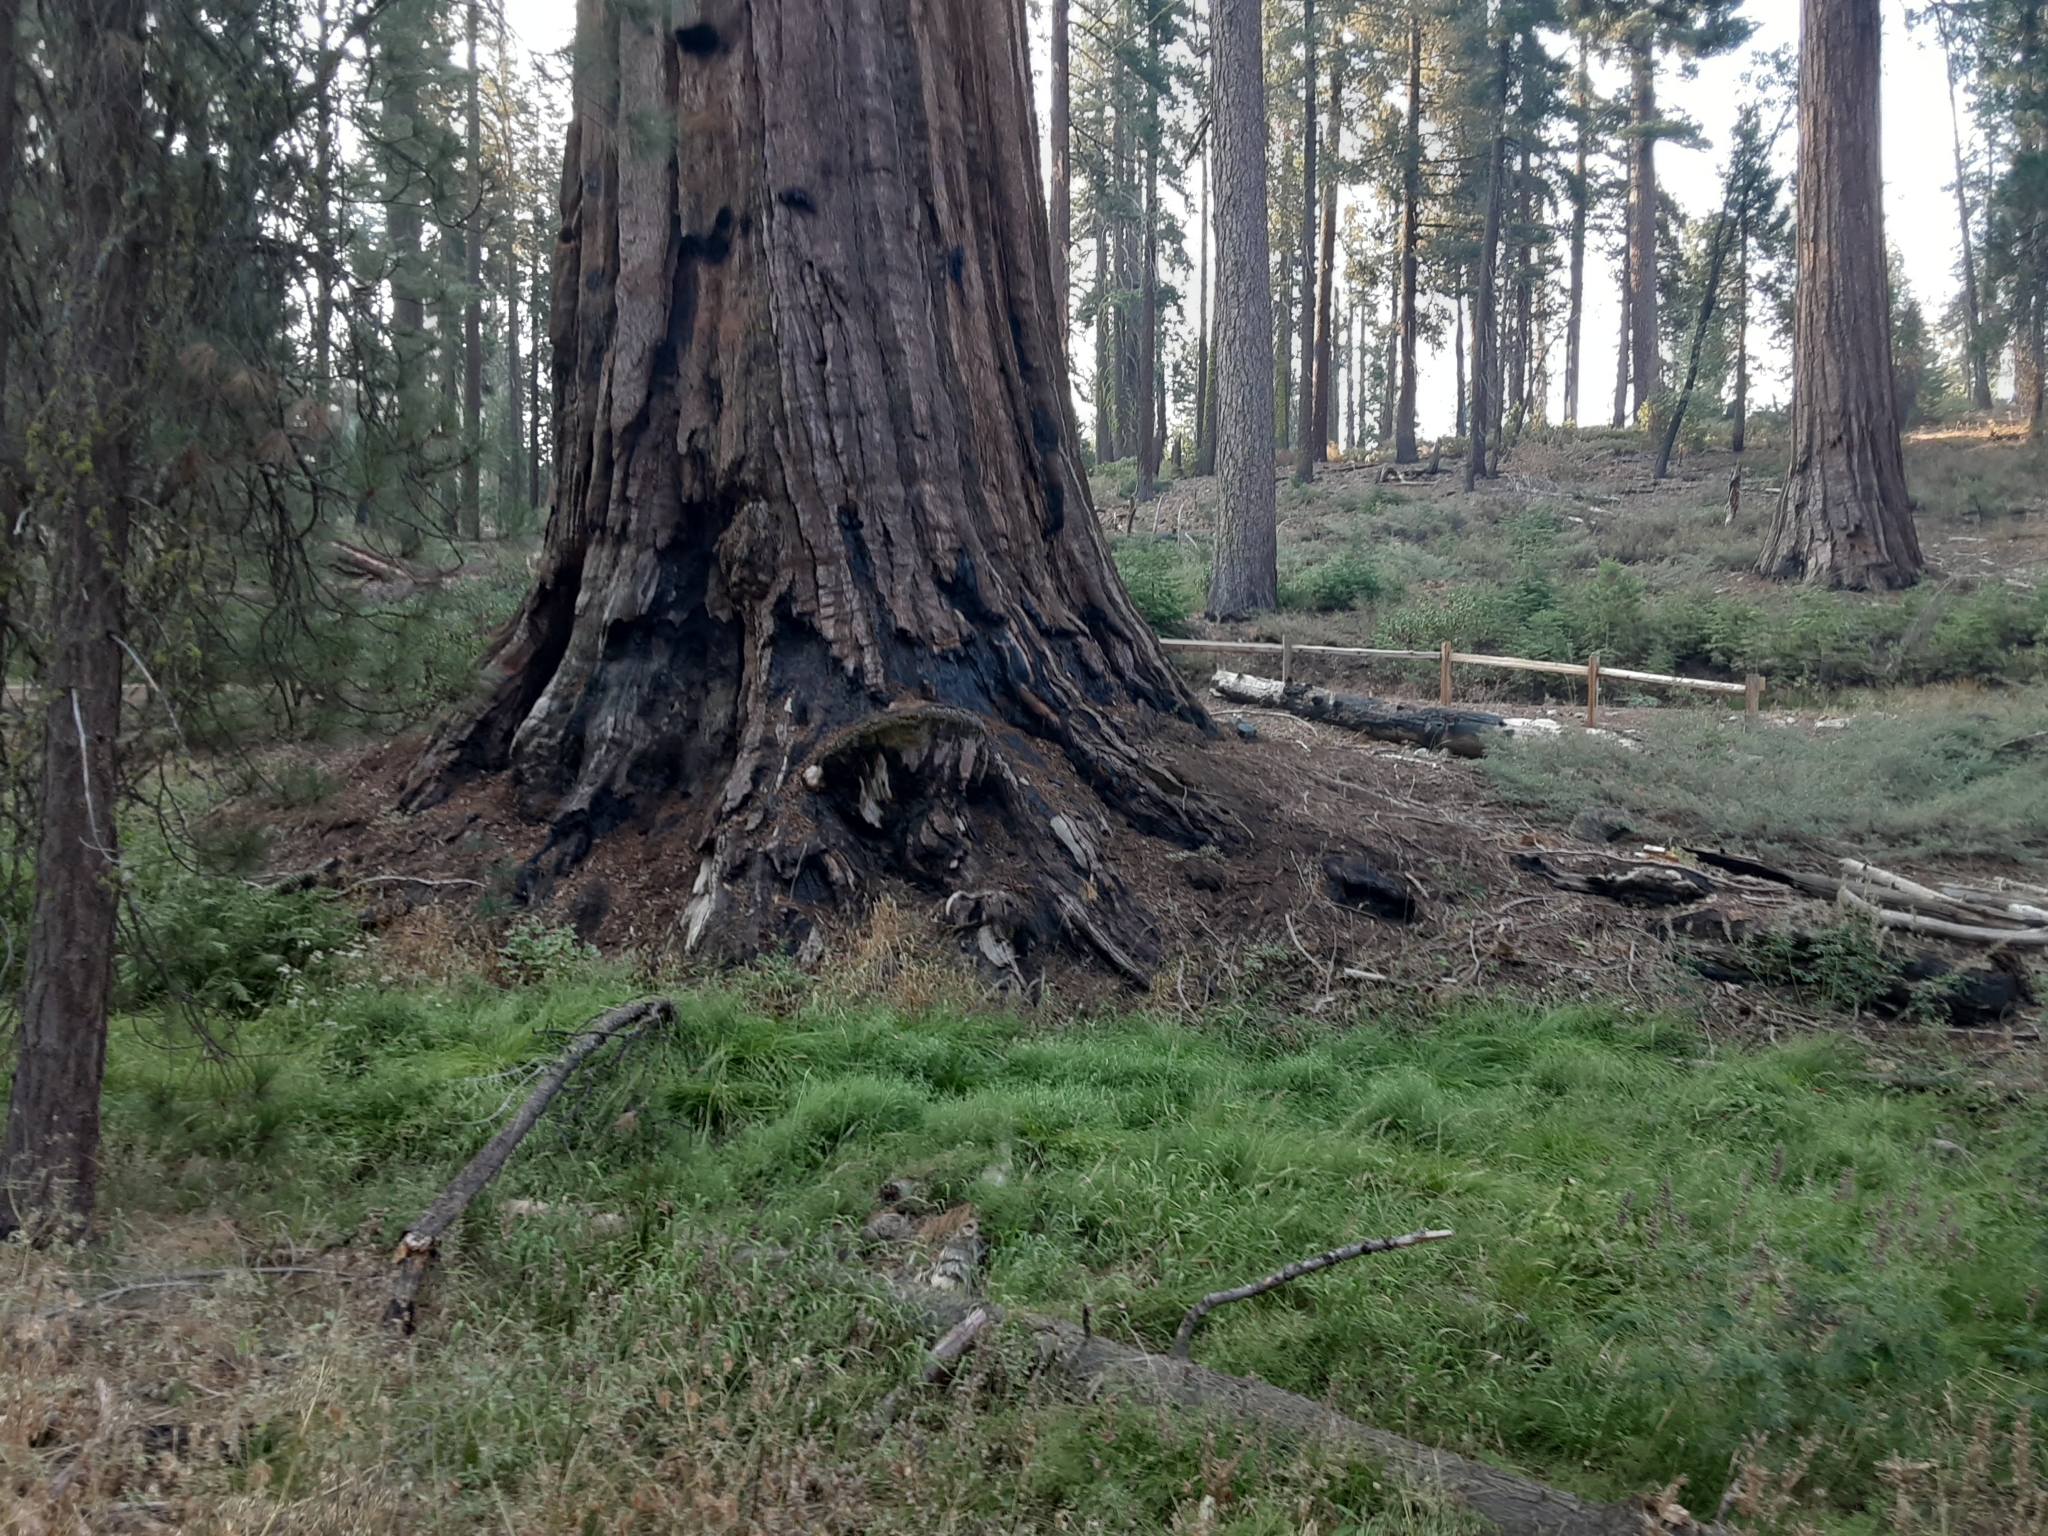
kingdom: Plantae
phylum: Tracheophyta
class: Pinopsida
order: Pinales
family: Cupressaceae
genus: Sequoiadendron
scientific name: Sequoiadendron giganteum
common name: Wellingtonia
